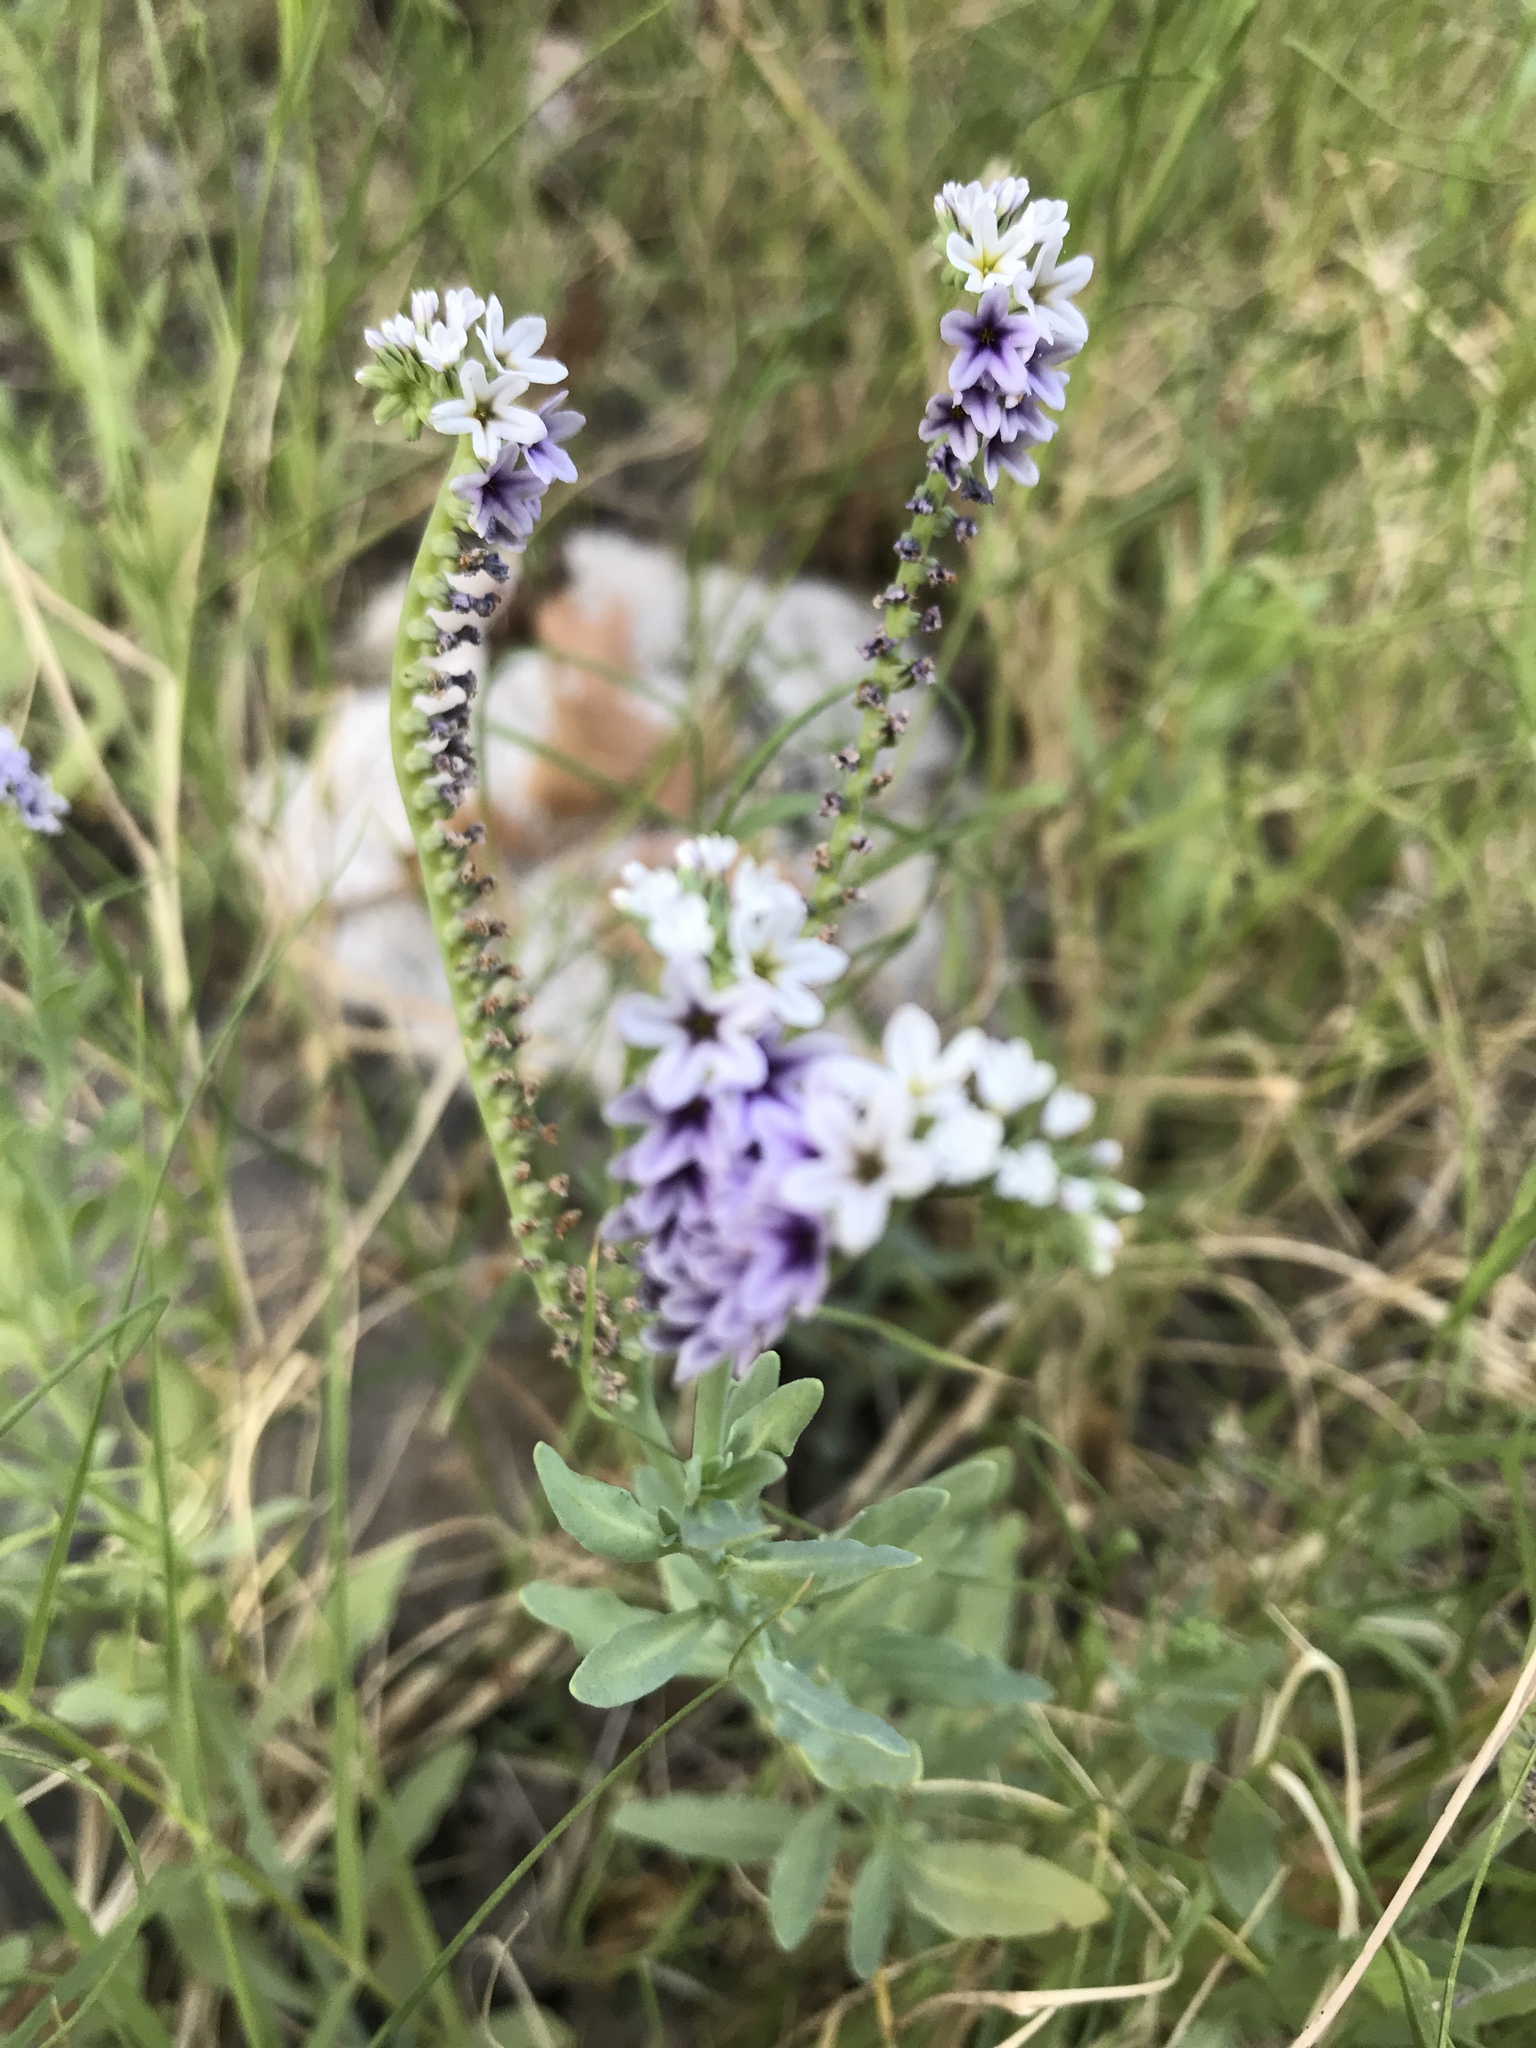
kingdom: Plantae
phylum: Tracheophyta
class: Magnoliopsida
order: Boraginales
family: Heliotropiaceae
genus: Heliotropium
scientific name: Heliotropium curassavicum
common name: Seaside heliotrope
